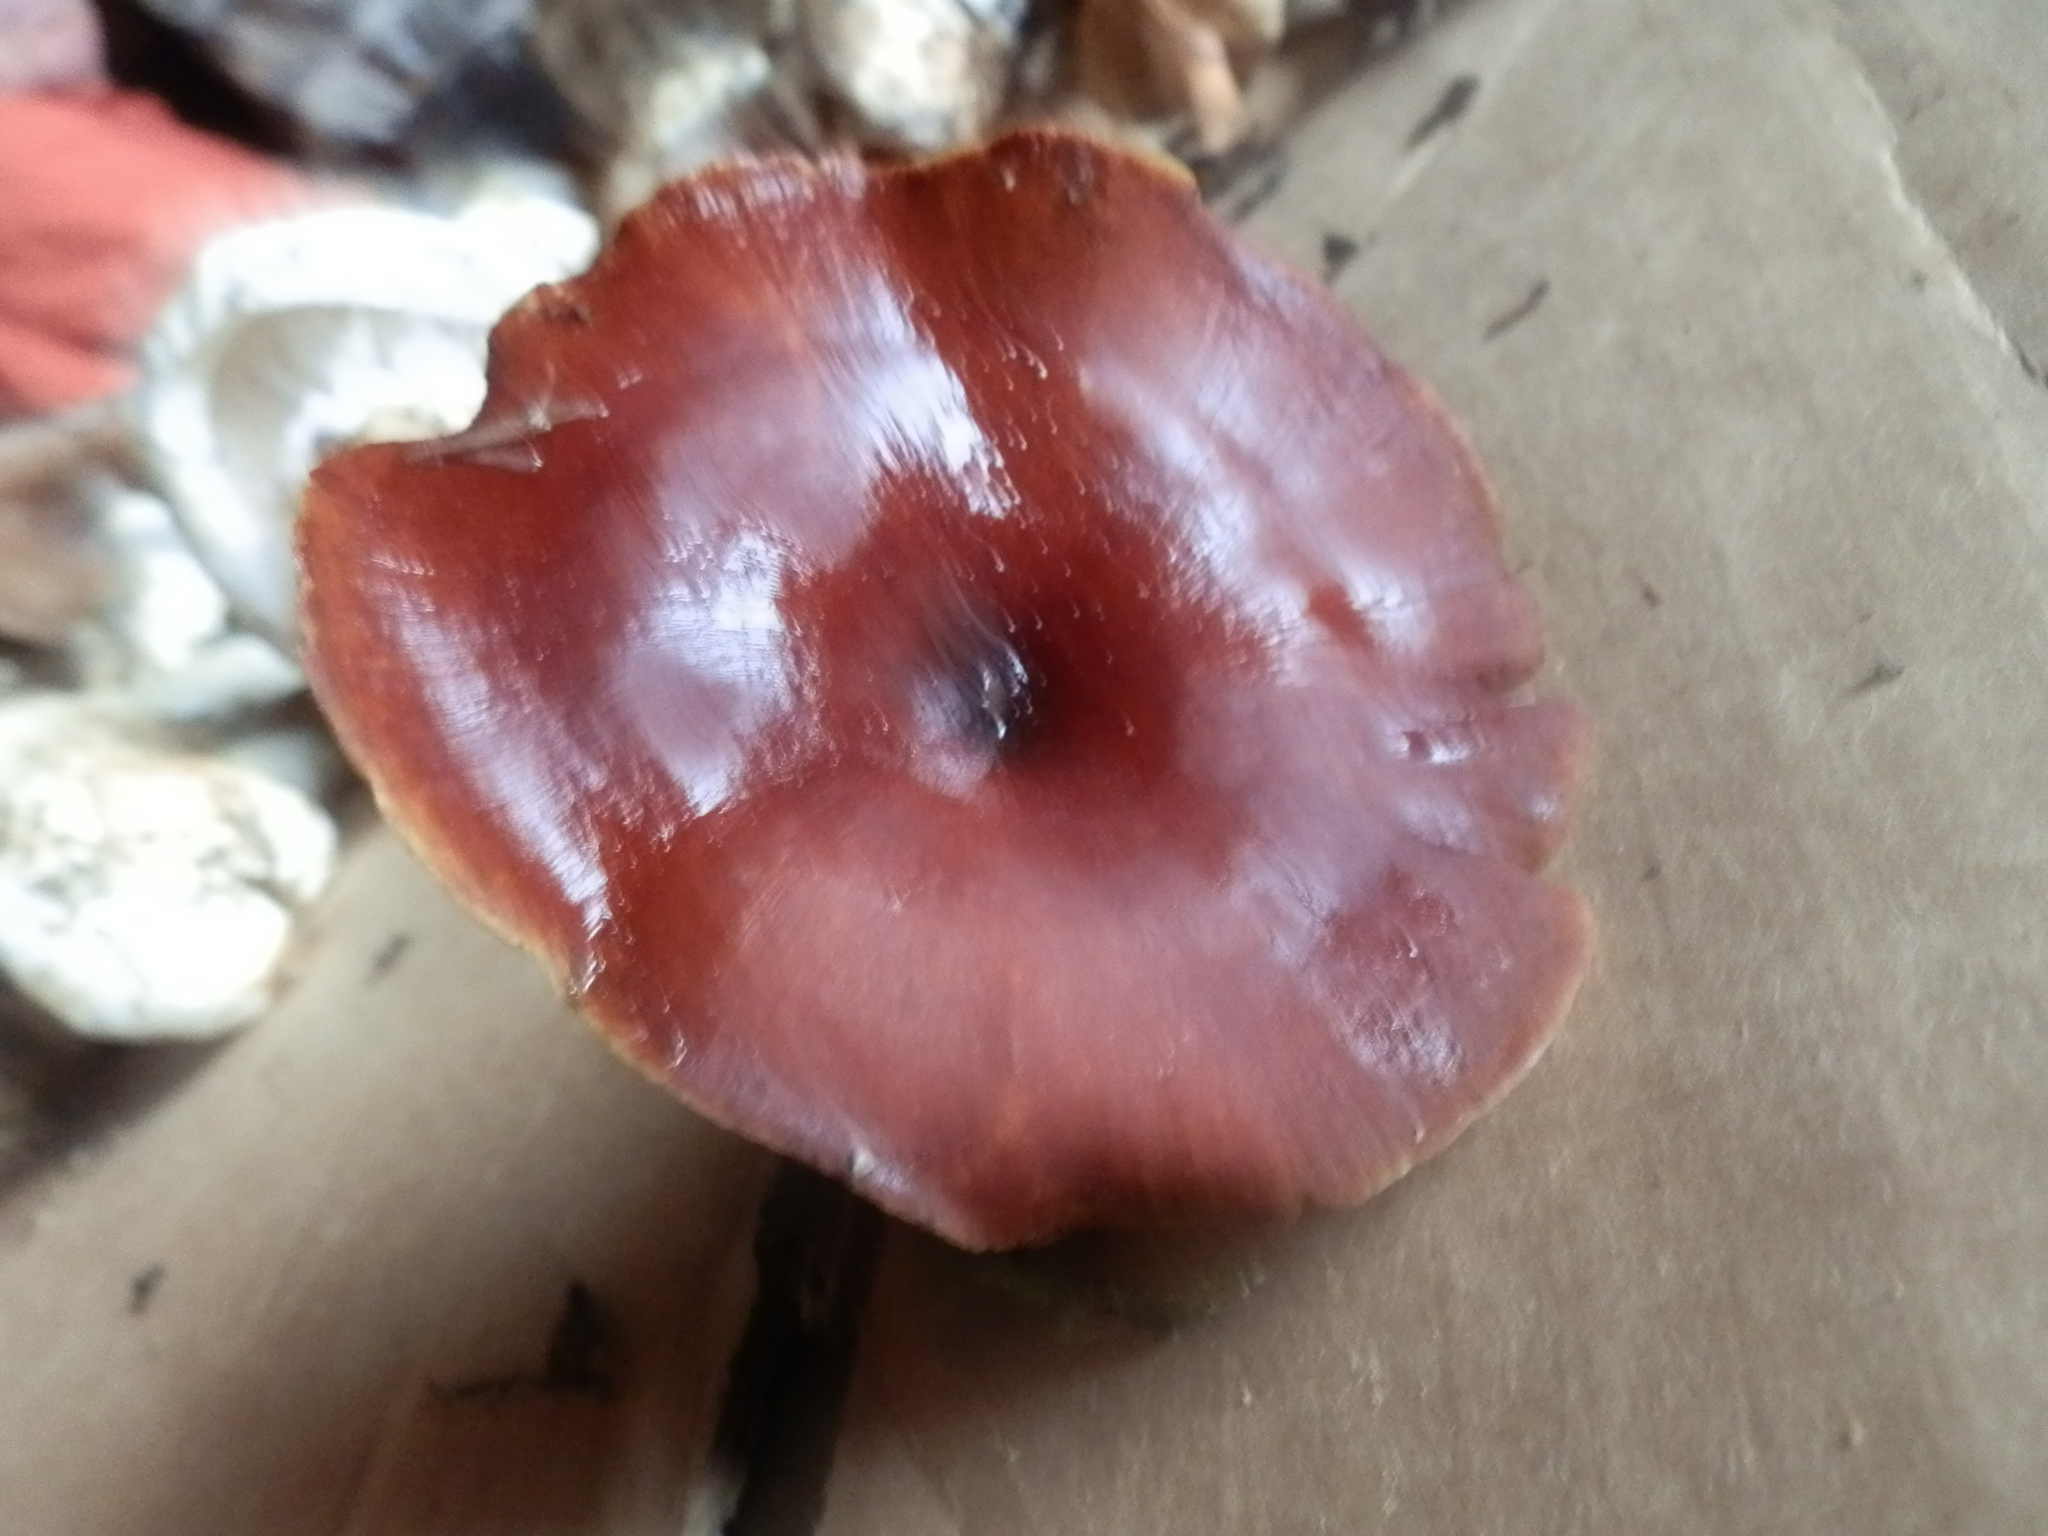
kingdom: Fungi
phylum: Basidiomycota
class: Agaricomycetes
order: Polyporales
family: Polyporaceae
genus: Picipes
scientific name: Picipes badius
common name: Bay polypore
